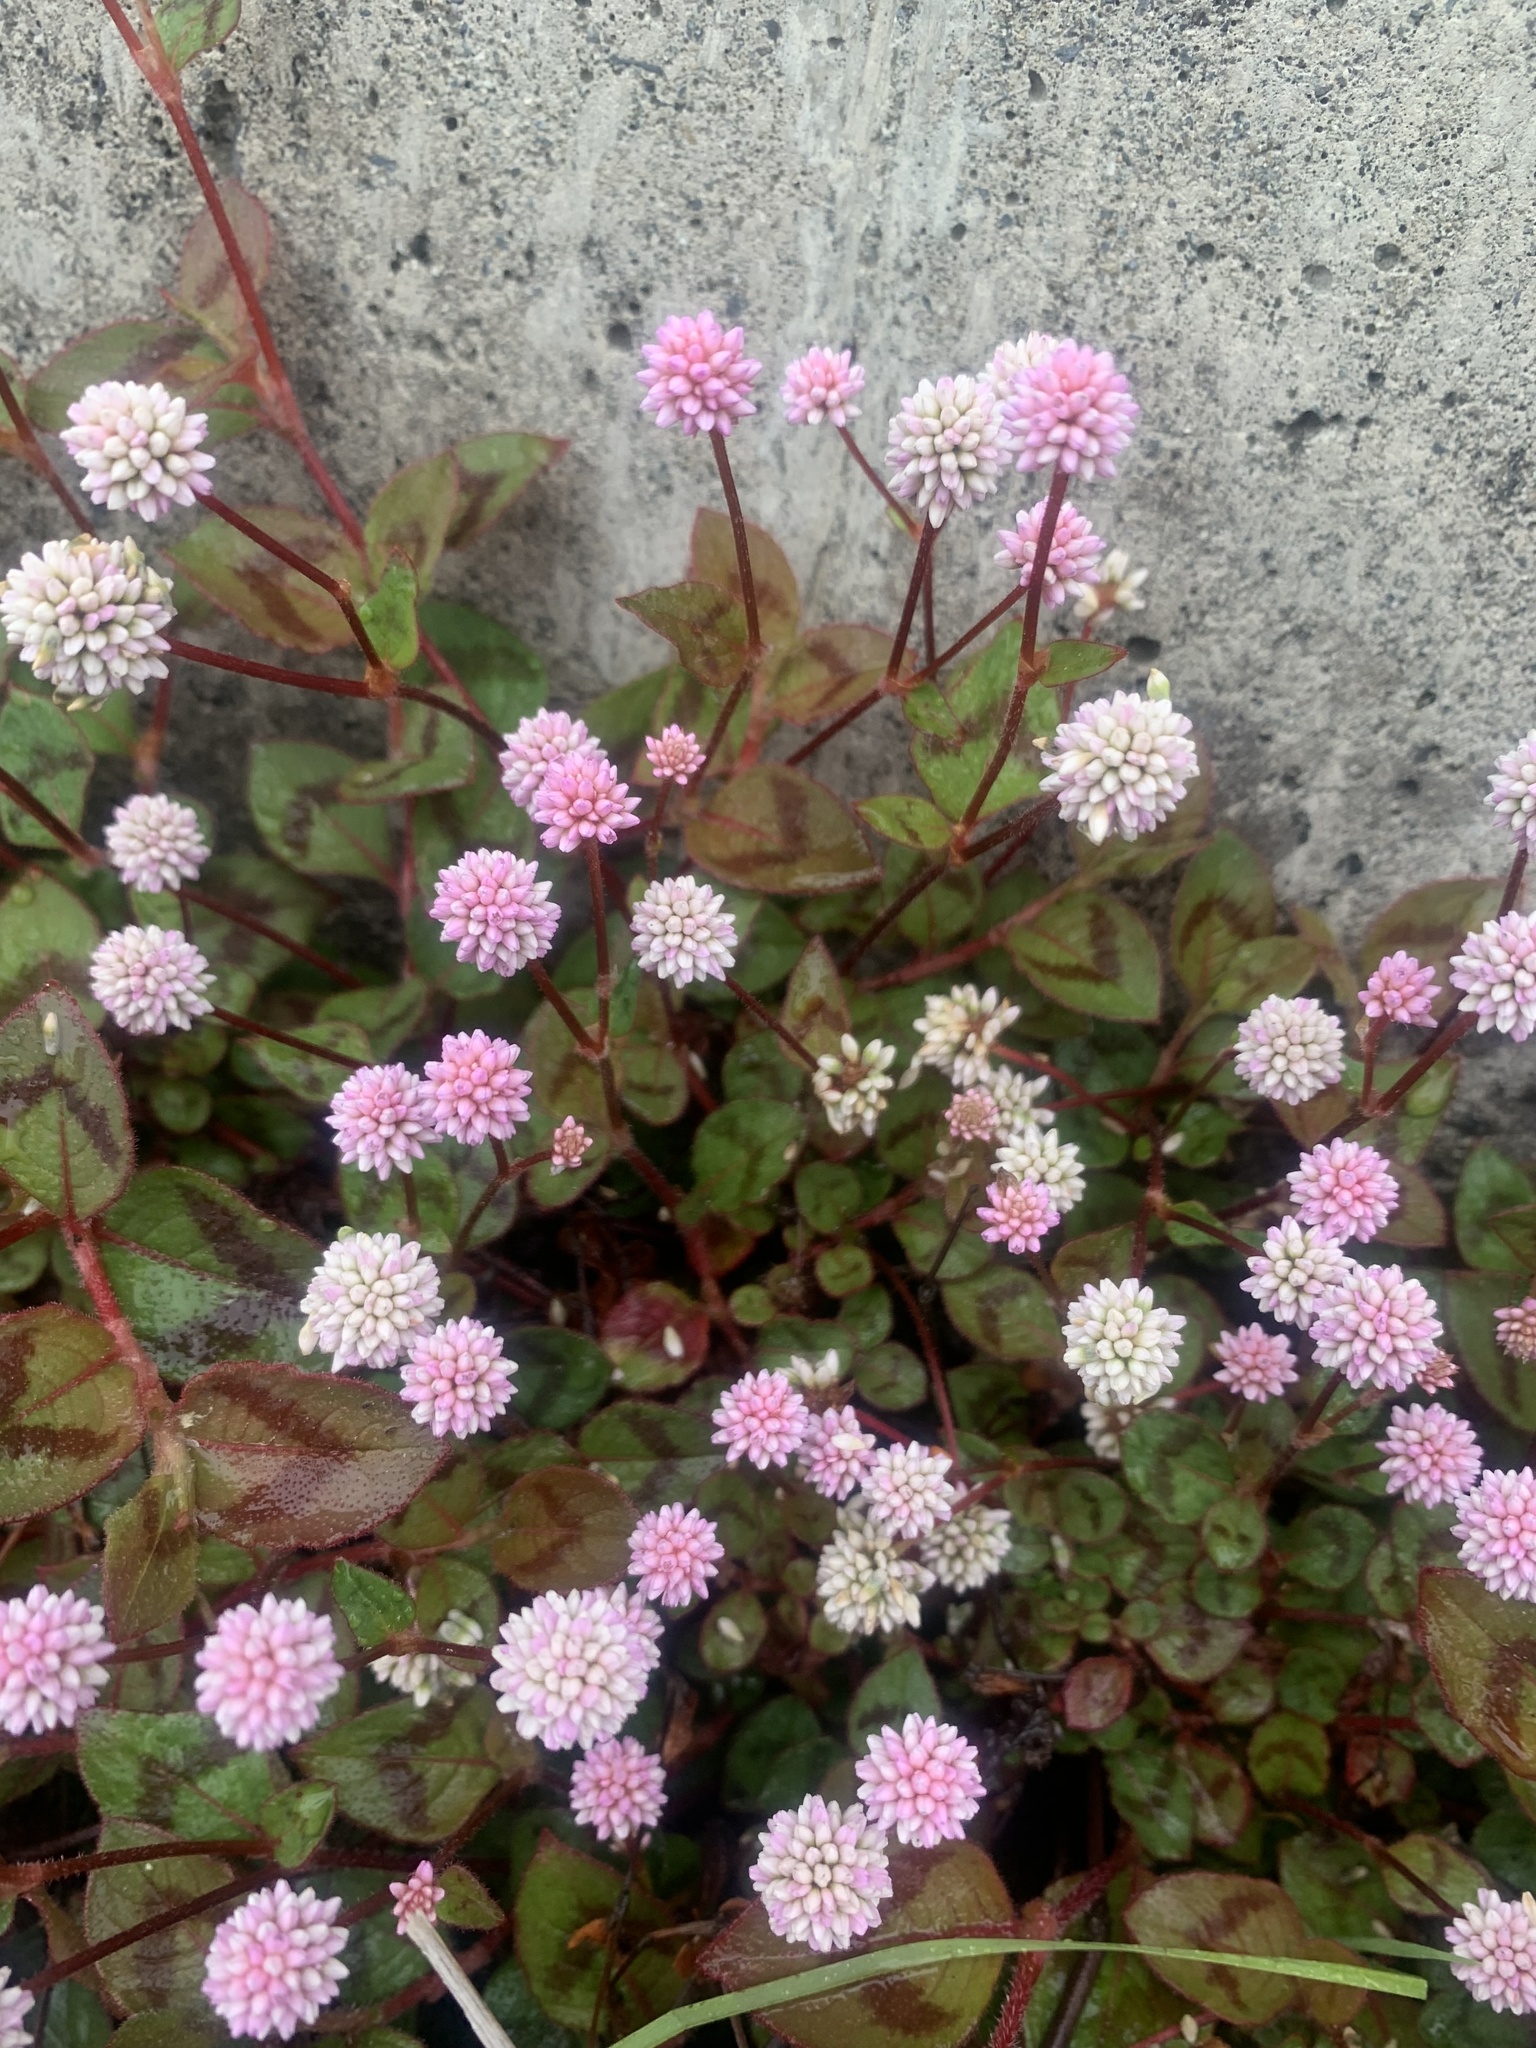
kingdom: Plantae
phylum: Tracheophyta
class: Magnoliopsida
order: Caryophyllales
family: Polygonaceae
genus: Persicaria
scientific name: Persicaria capitata
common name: Pinkhead smartweed
